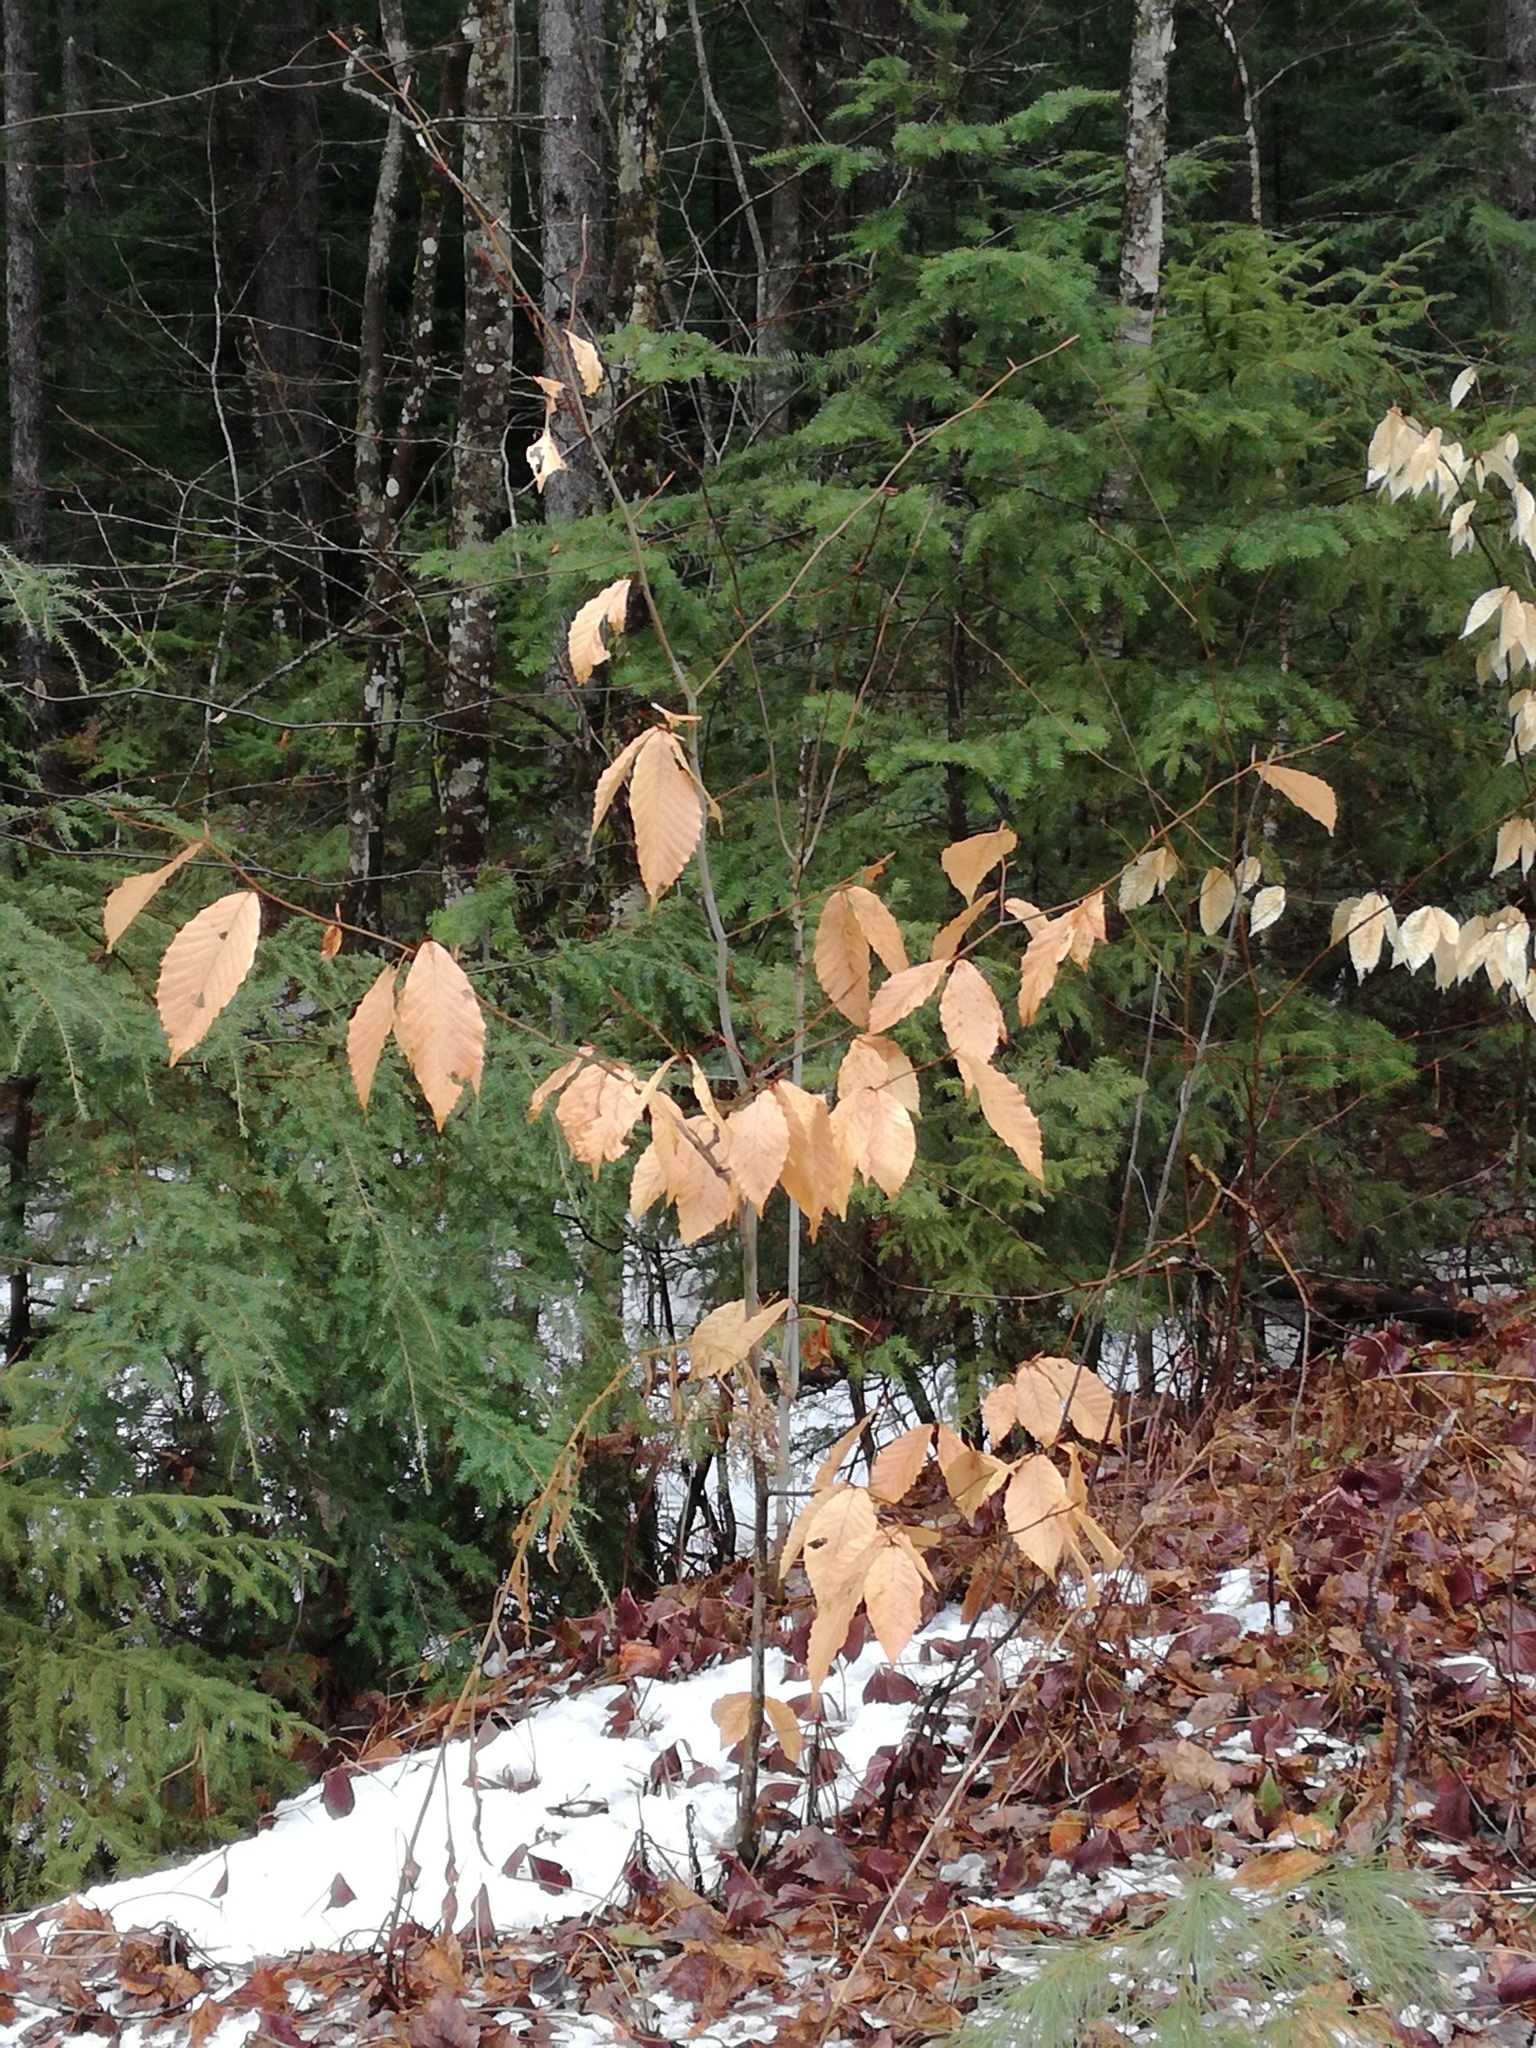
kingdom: Plantae
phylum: Tracheophyta
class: Magnoliopsida
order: Fagales
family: Fagaceae
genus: Fagus
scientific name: Fagus grandifolia
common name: American beech
